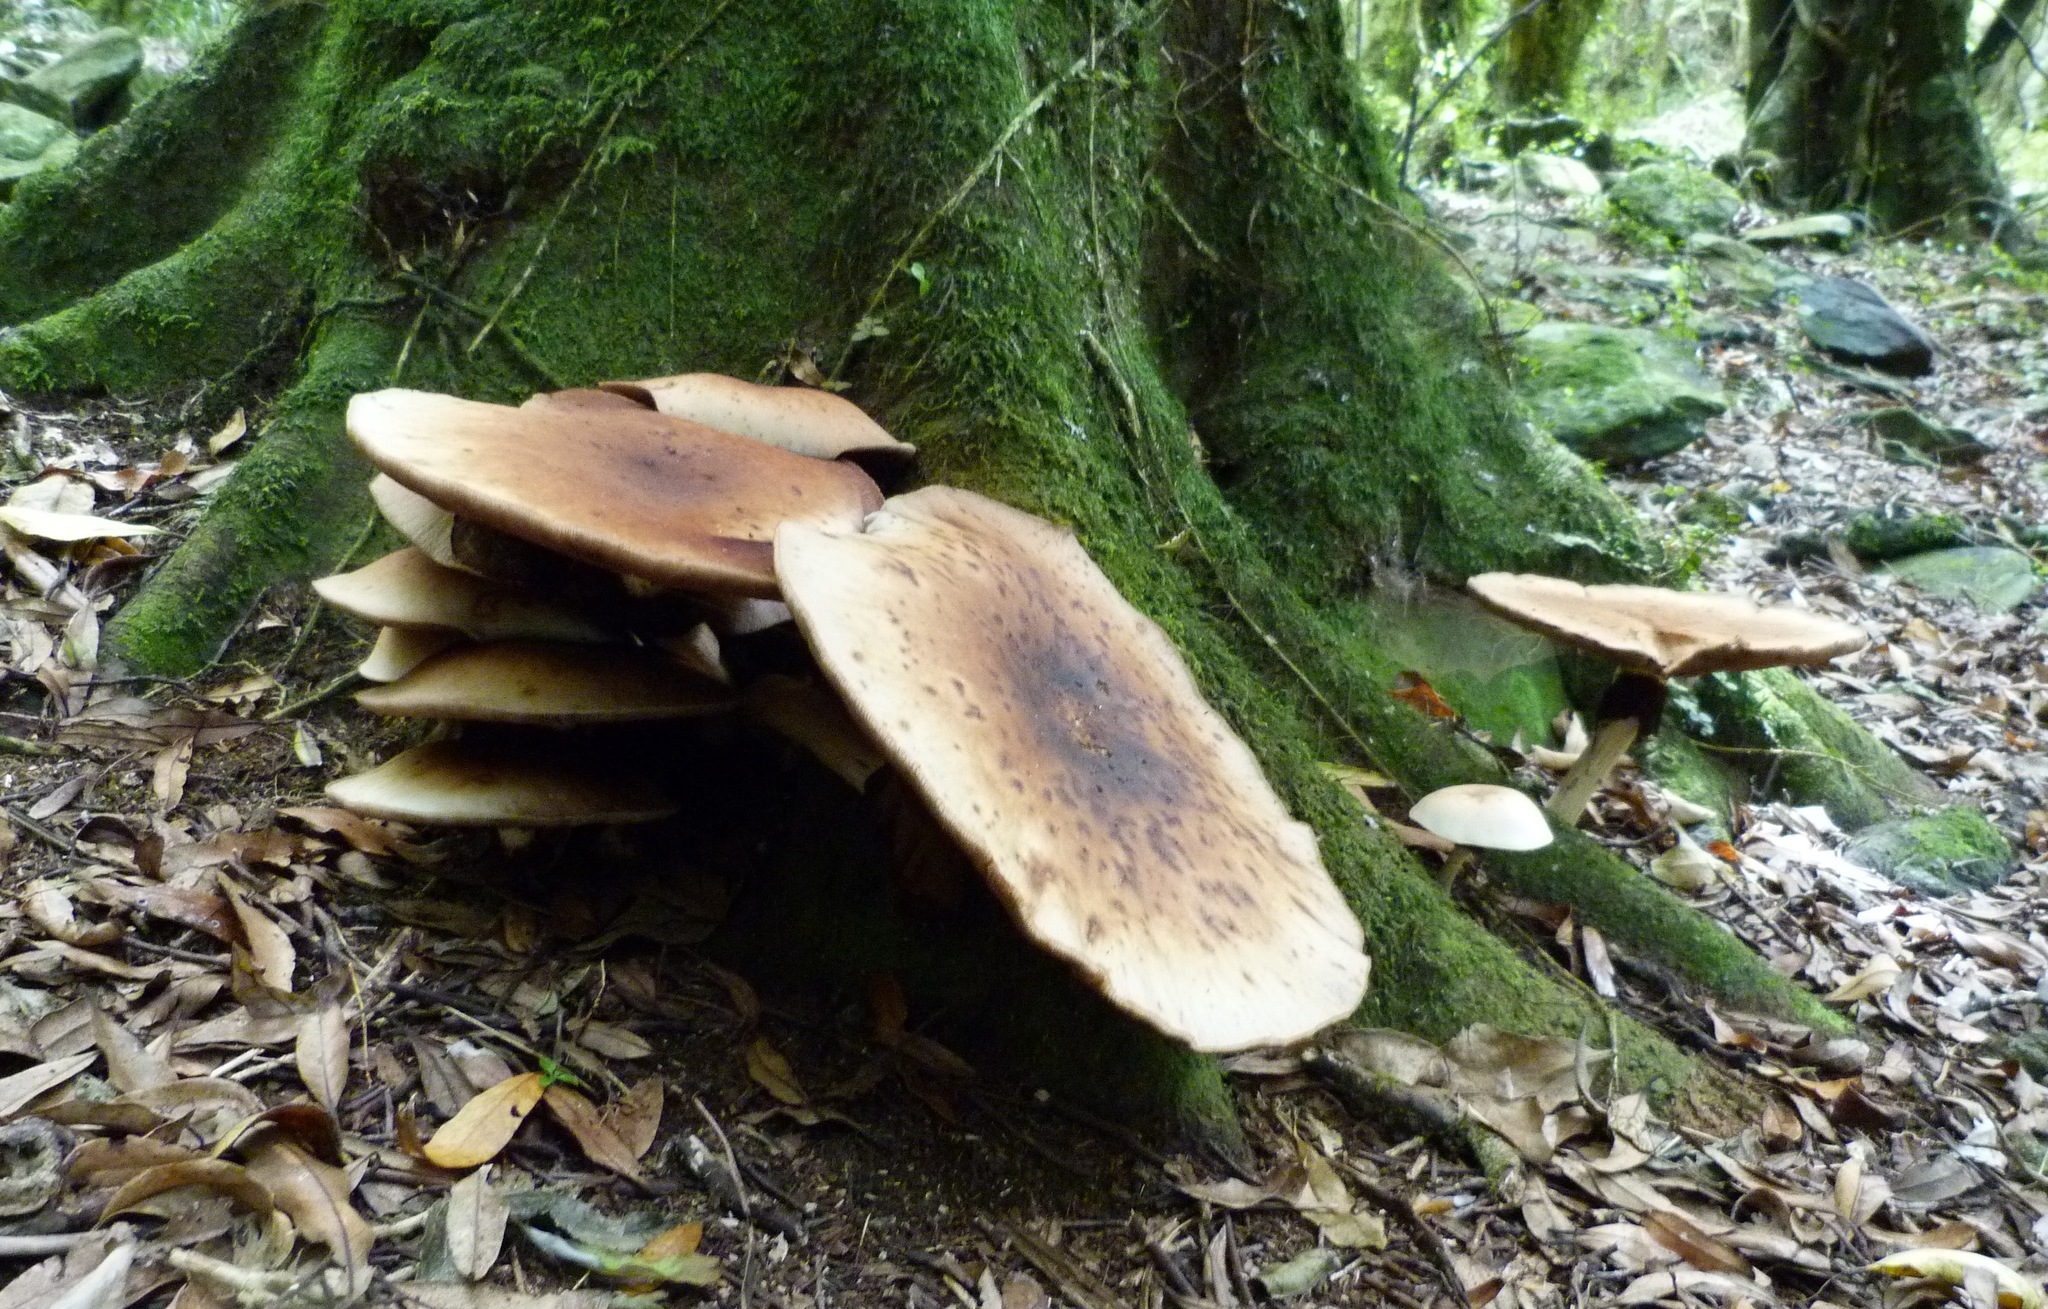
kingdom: Fungi
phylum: Basidiomycota
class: Agaricomycetes
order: Agaricales
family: Tubariaceae
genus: Cyclocybe
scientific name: Cyclocybe parasitica
